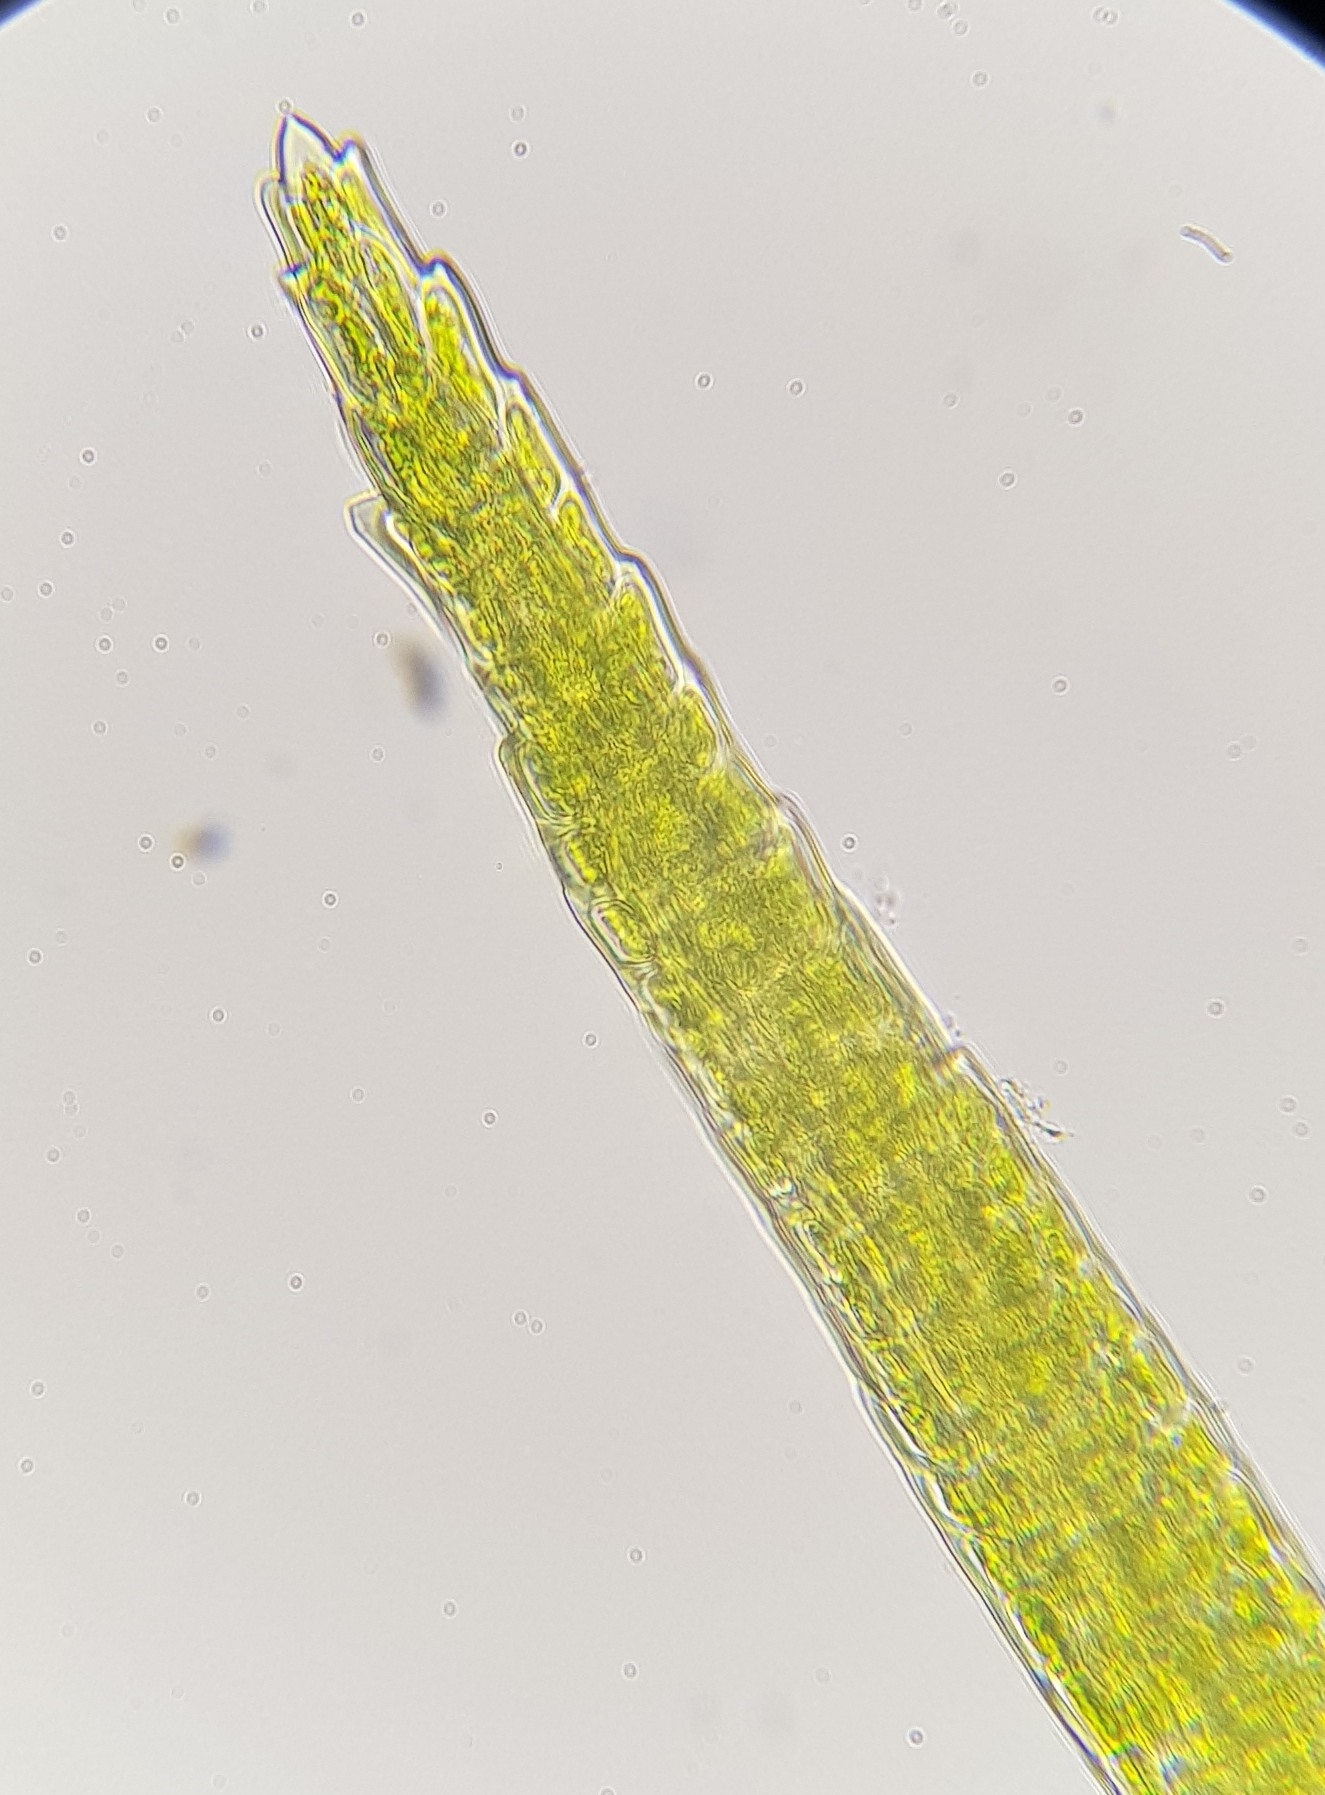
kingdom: Plantae
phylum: Bryophyta
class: Bryopsida
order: Dicranales
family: Leucobryaceae
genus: Dicranodontium
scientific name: Dicranodontium denudatum
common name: Beaked bow moss
